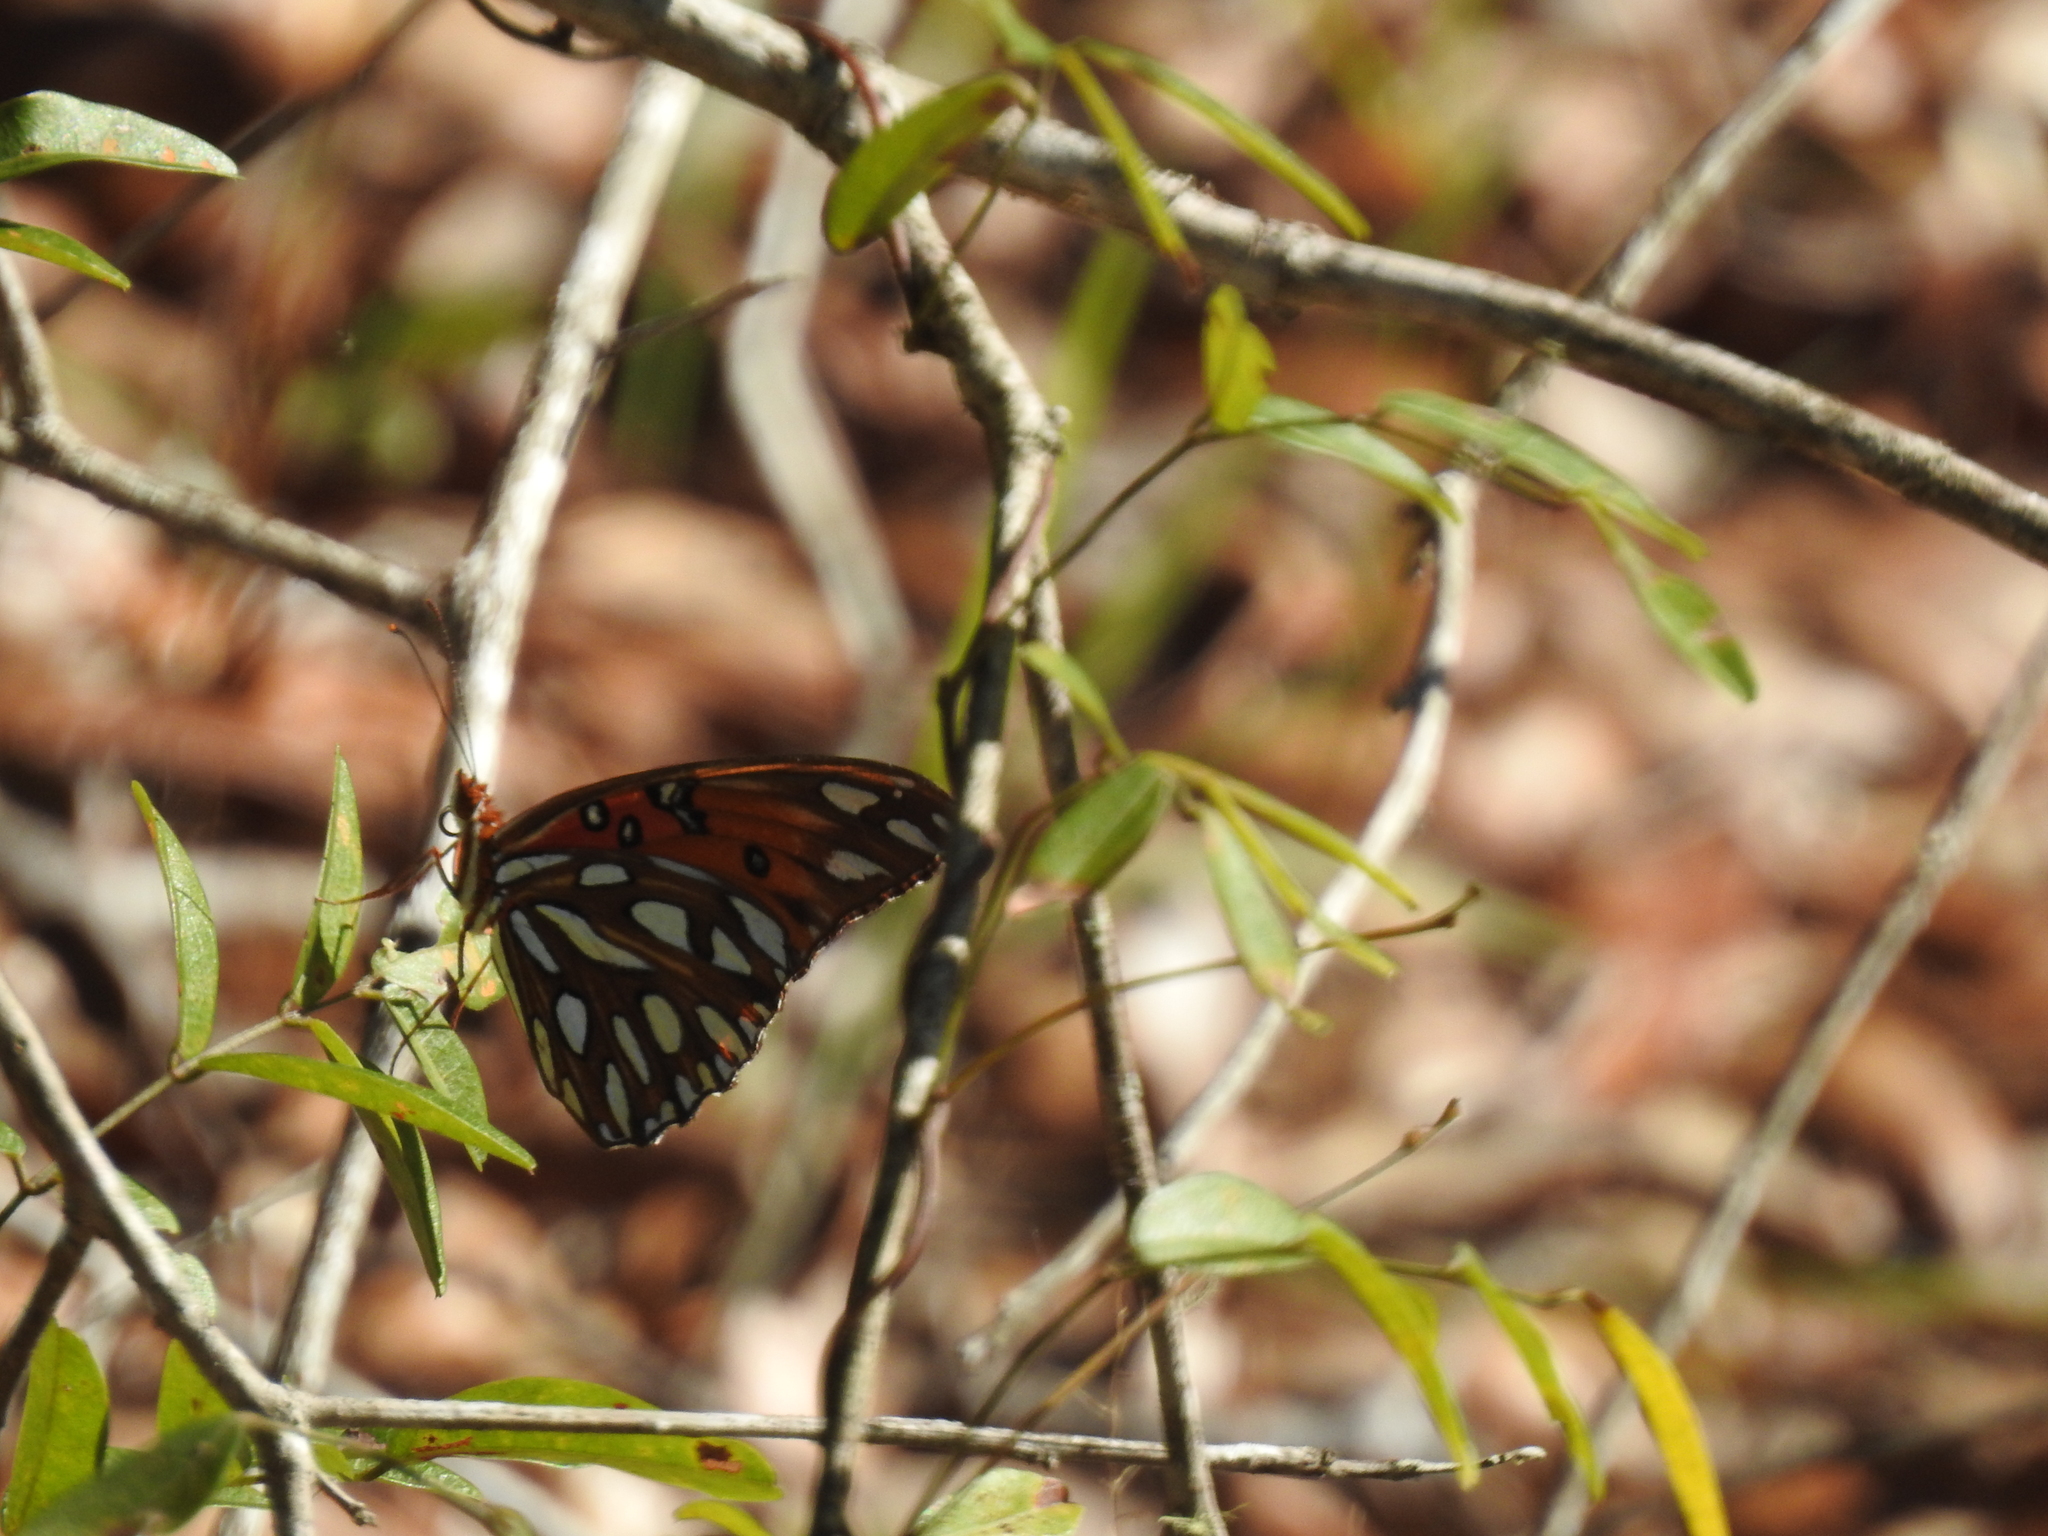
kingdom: Animalia
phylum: Arthropoda
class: Insecta
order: Lepidoptera
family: Nymphalidae
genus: Dione
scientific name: Dione vanillae
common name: Gulf fritillary
